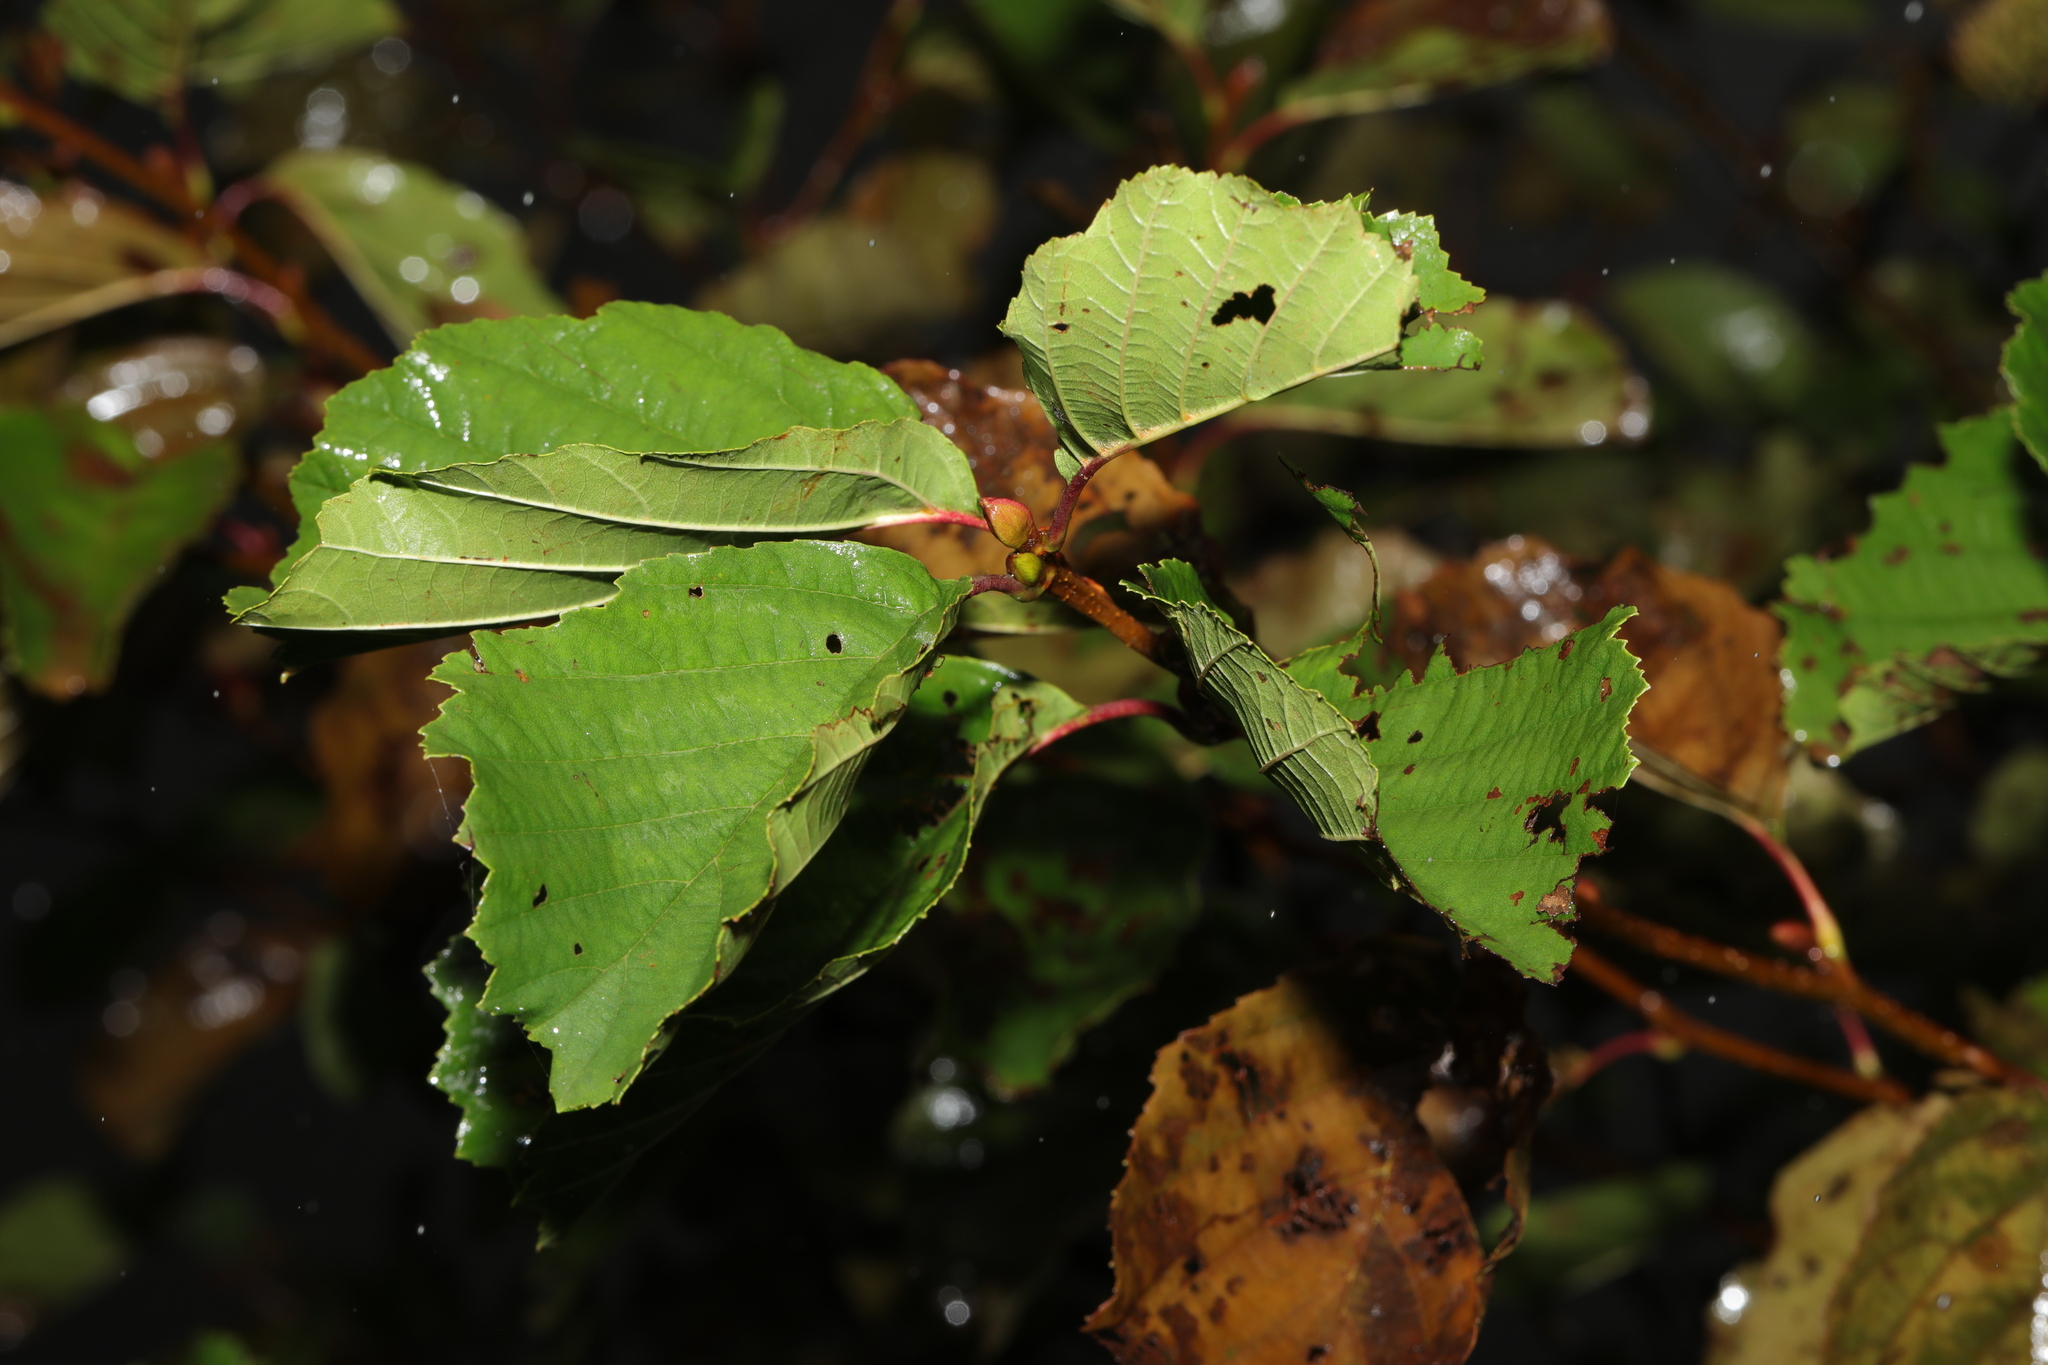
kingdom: Plantae
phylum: Tracheophyta
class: Magnoliopsida
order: Fagales
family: Betulaceae
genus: Alnus
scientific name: Alnus glutinosa
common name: Black alder
